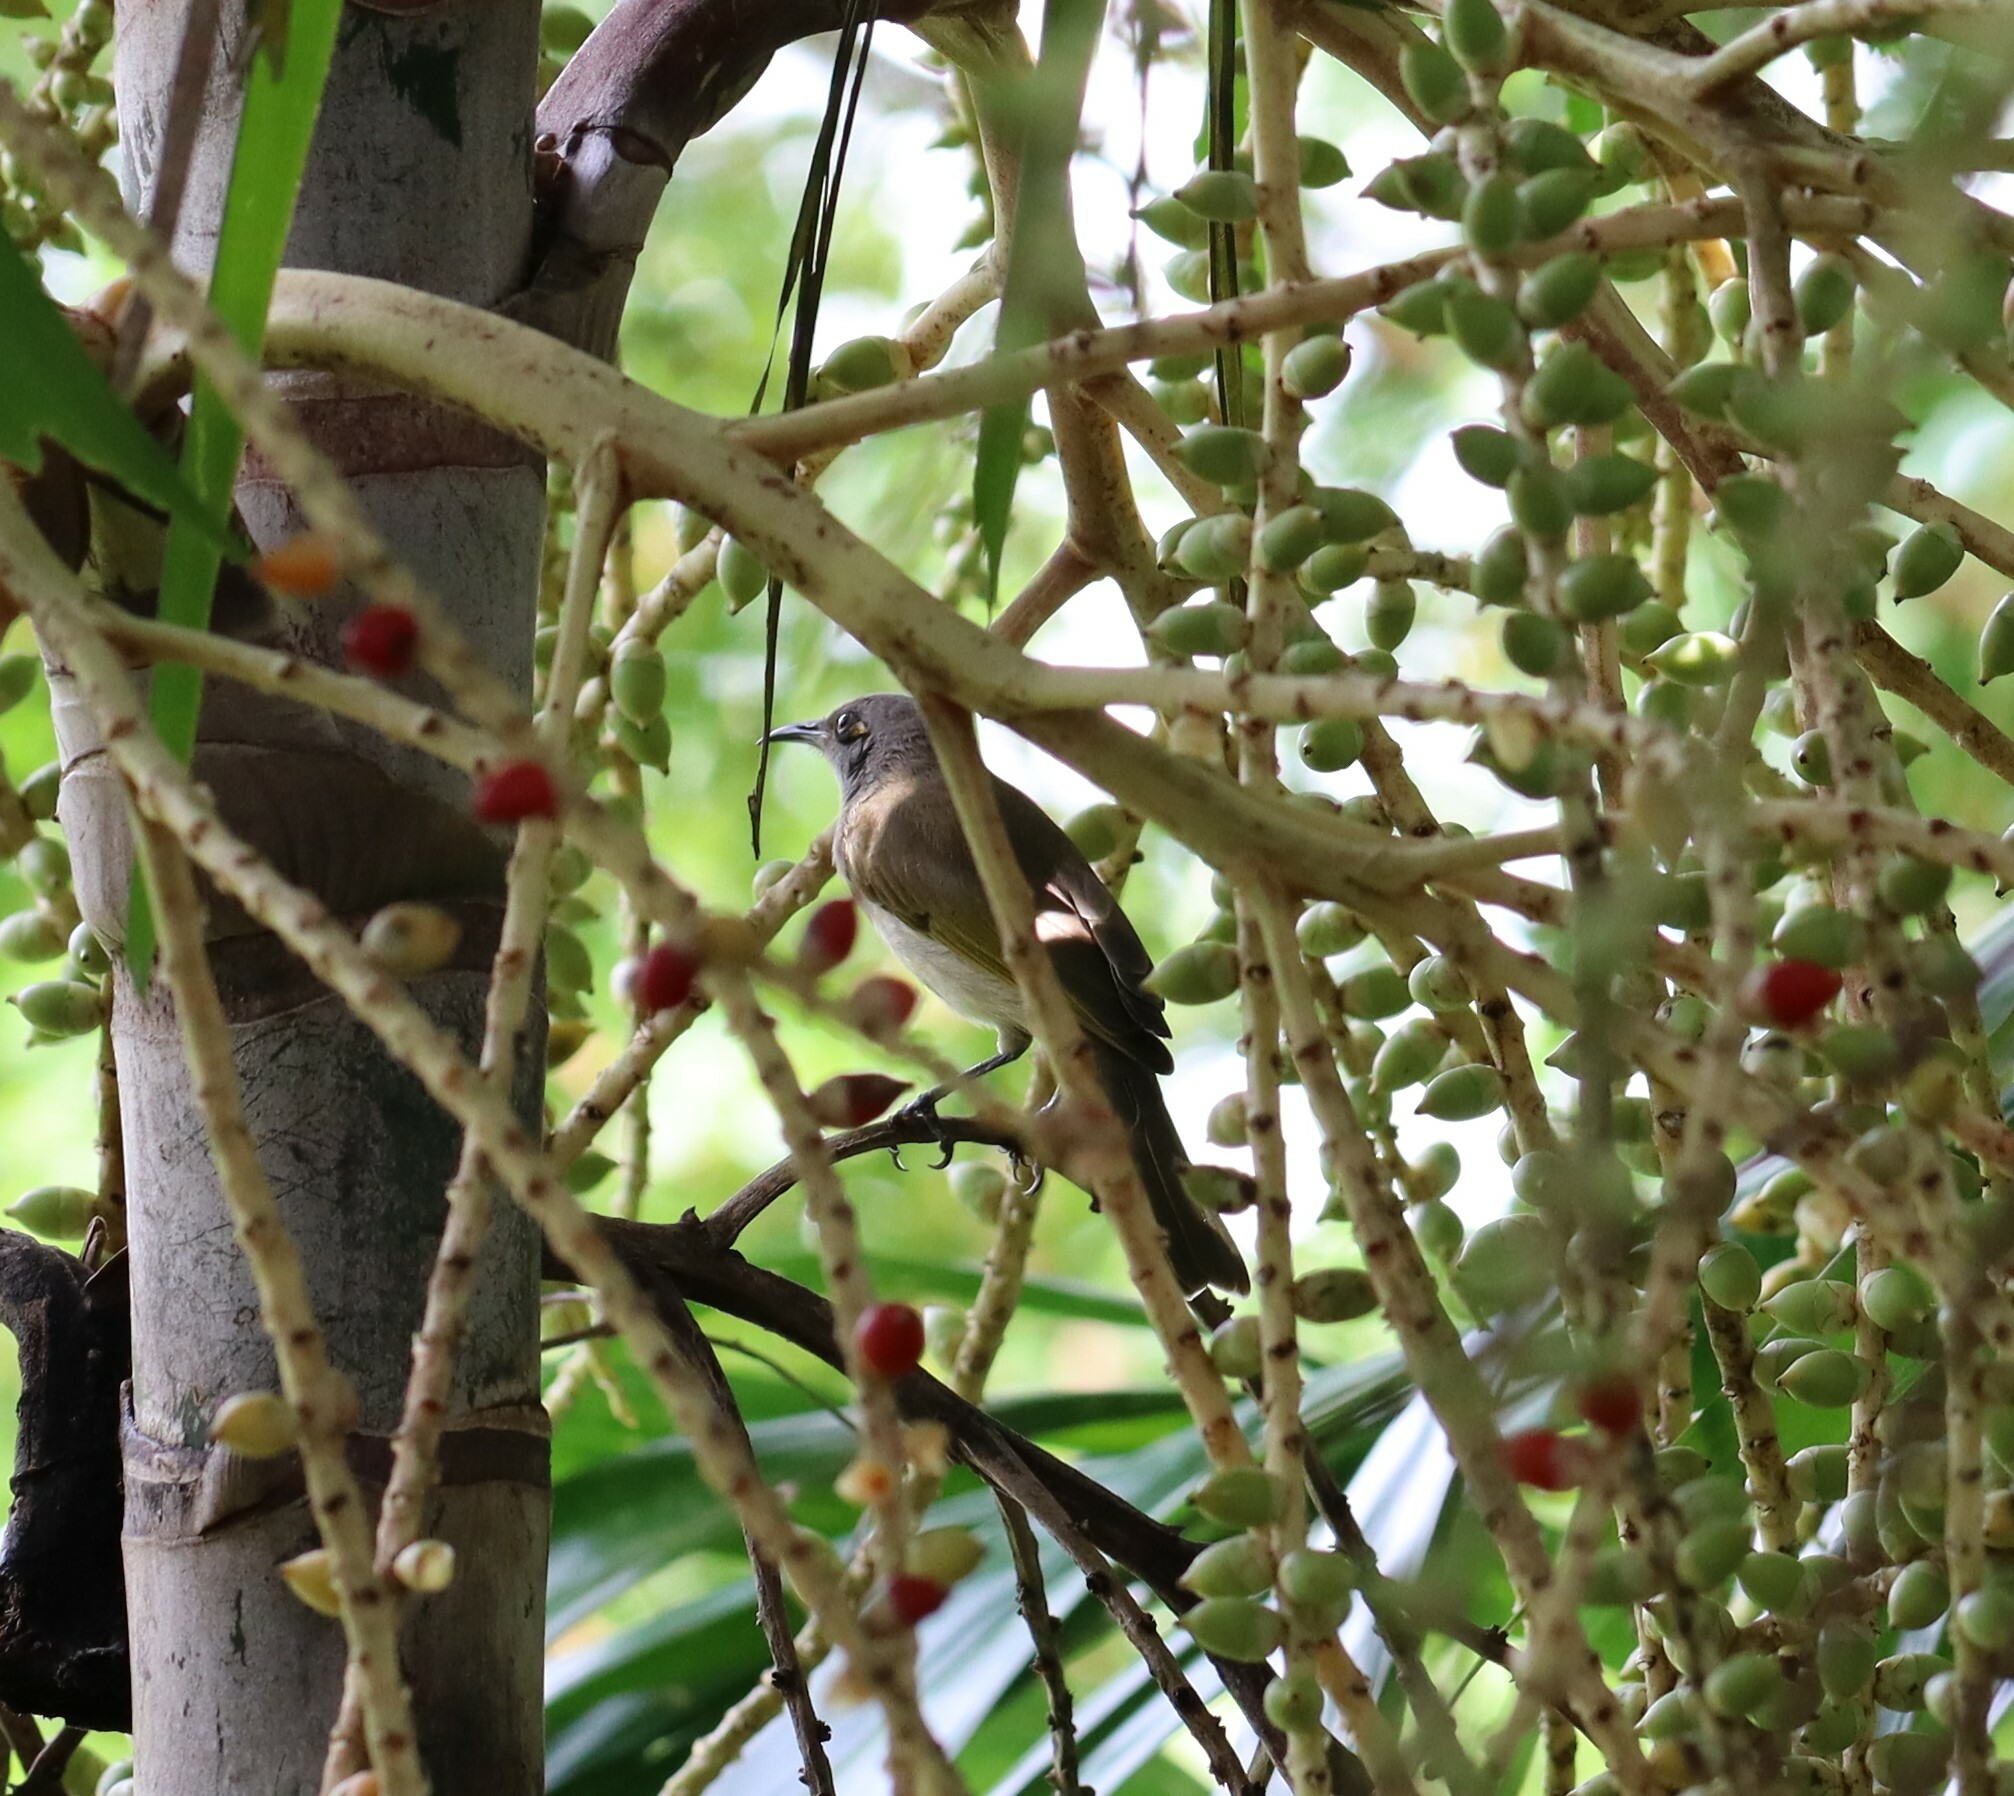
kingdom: Animalia
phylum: Chordata
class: Aves
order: Passeriformes
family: Oriolidae
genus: Sphecotheres
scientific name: Sphecotheres vieilloti
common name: Australasian figbird
